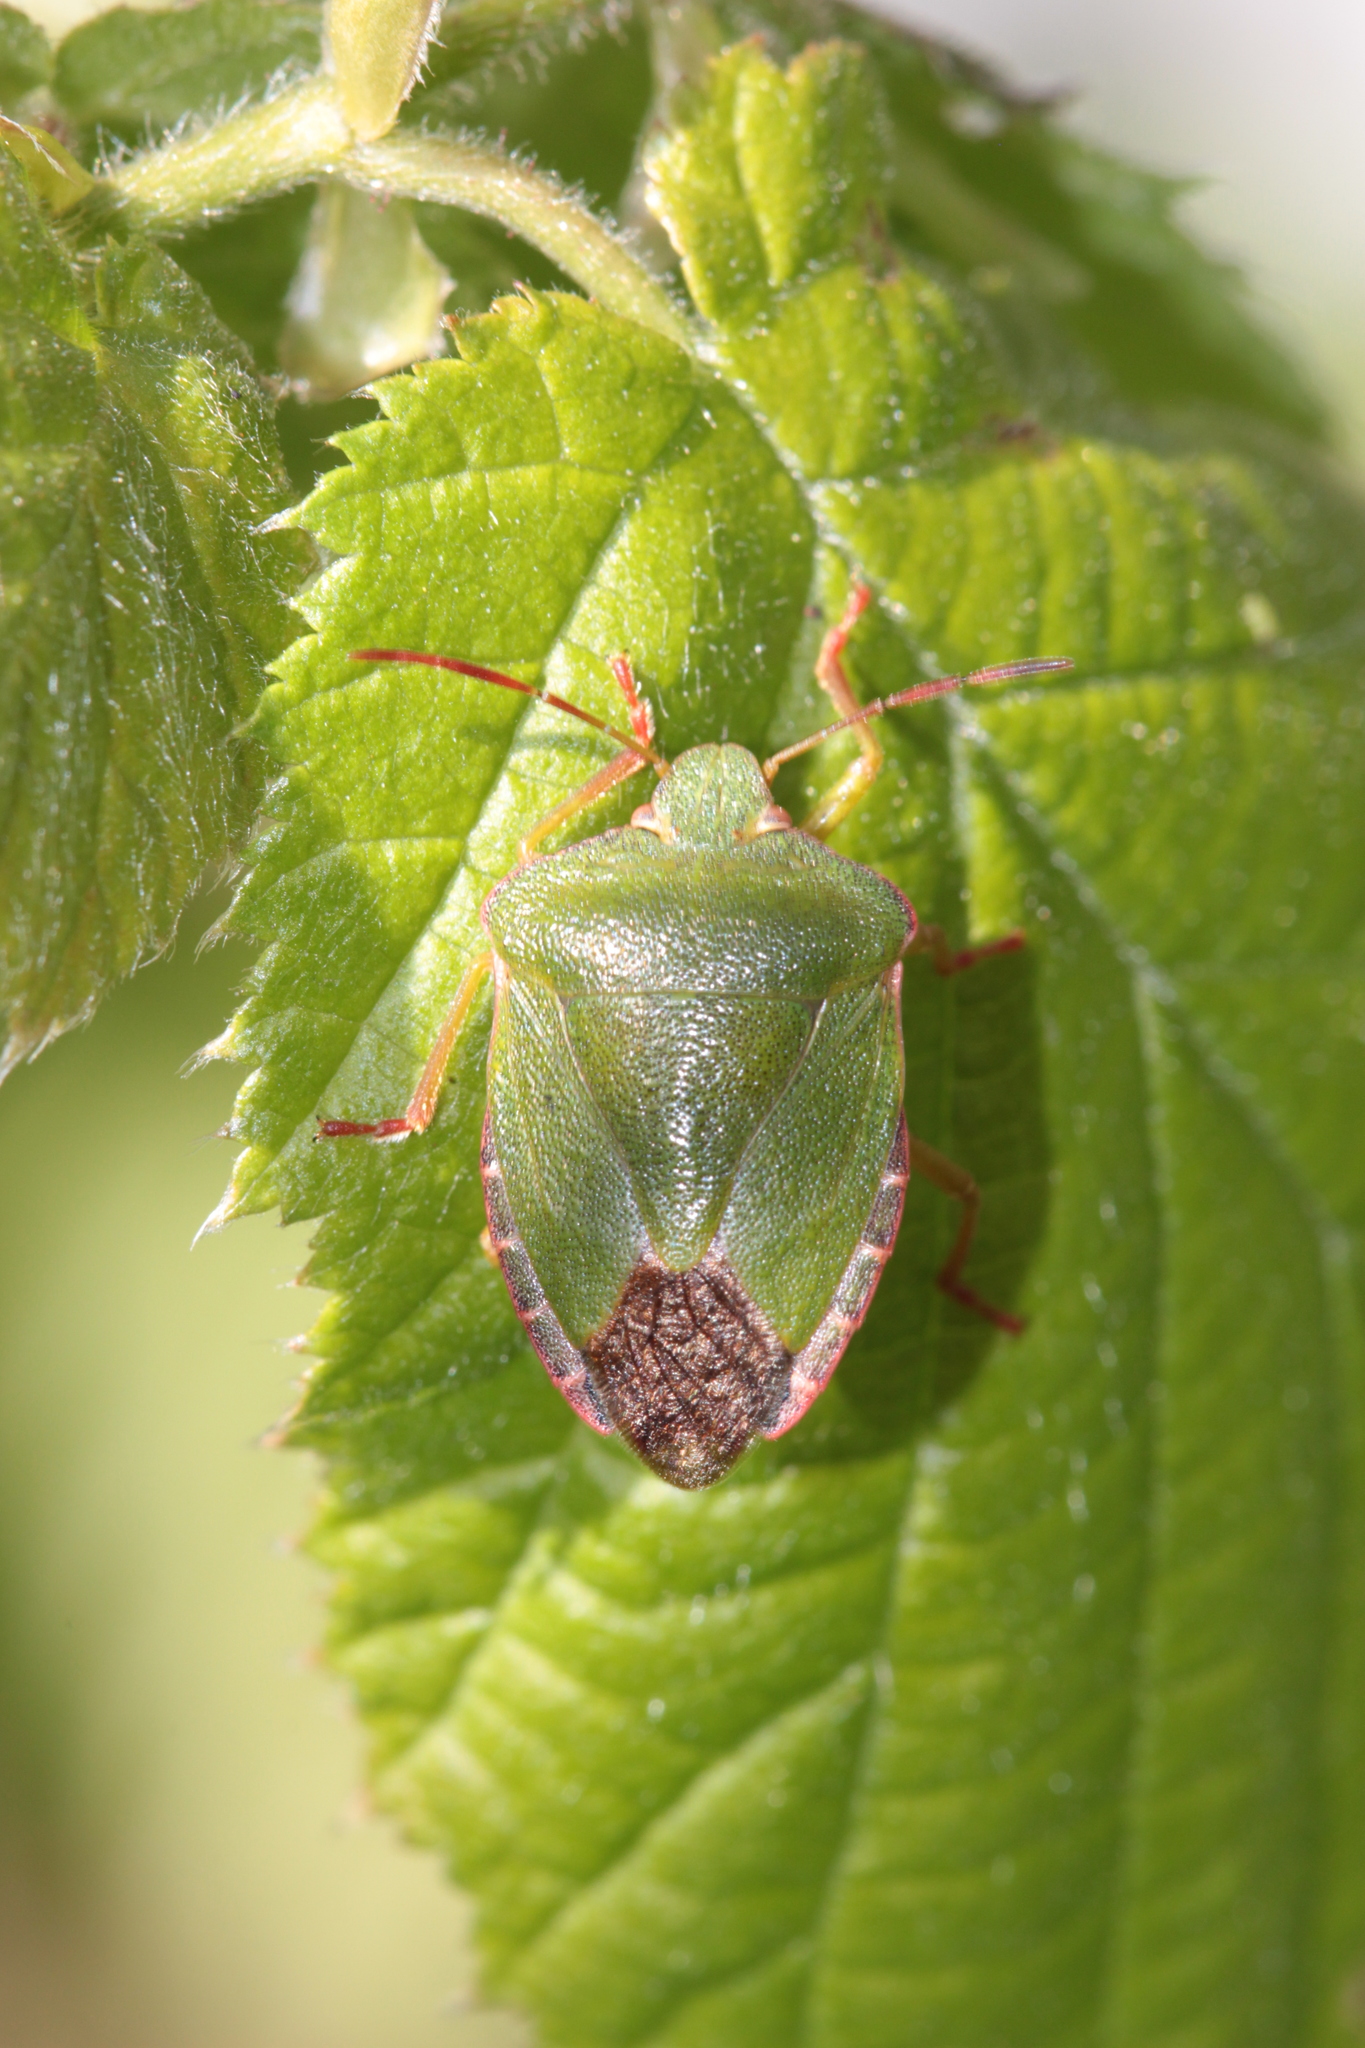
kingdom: Animalia
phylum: Arthropoda
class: Insecta
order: Hemiptera
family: Pentatomidae
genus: Palomena
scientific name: Palomena prasina
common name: Green shieldbug
